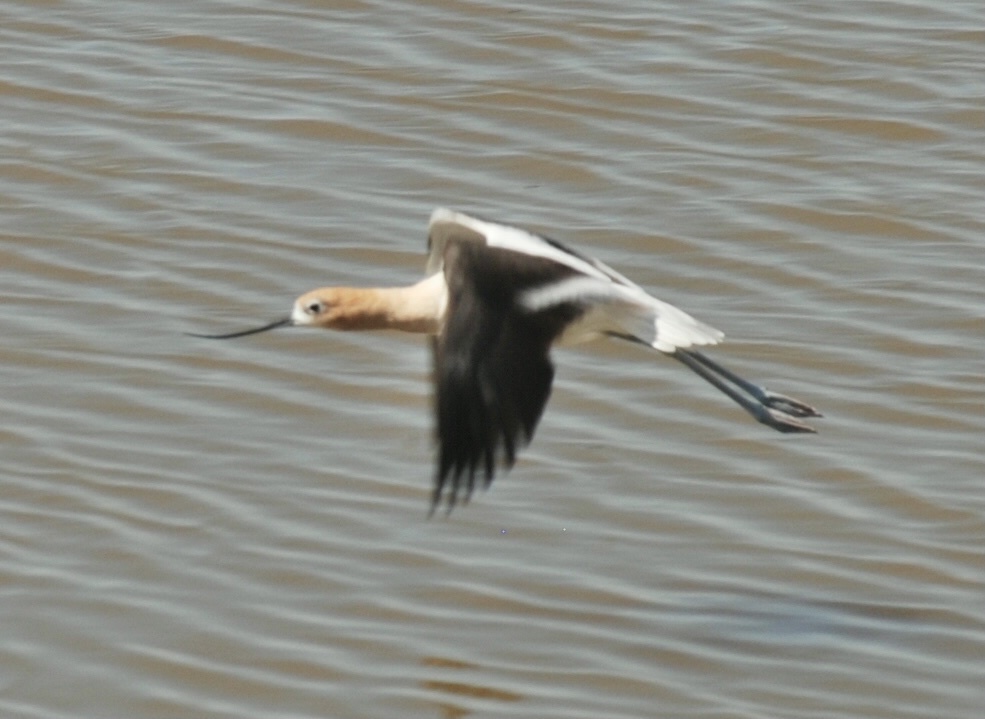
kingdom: Animalia
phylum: Chordata
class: Aves
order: Charadriiformes
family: Recurvirostridae
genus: Recurvirostra
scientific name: Recurvirostra americana
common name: American avocet
